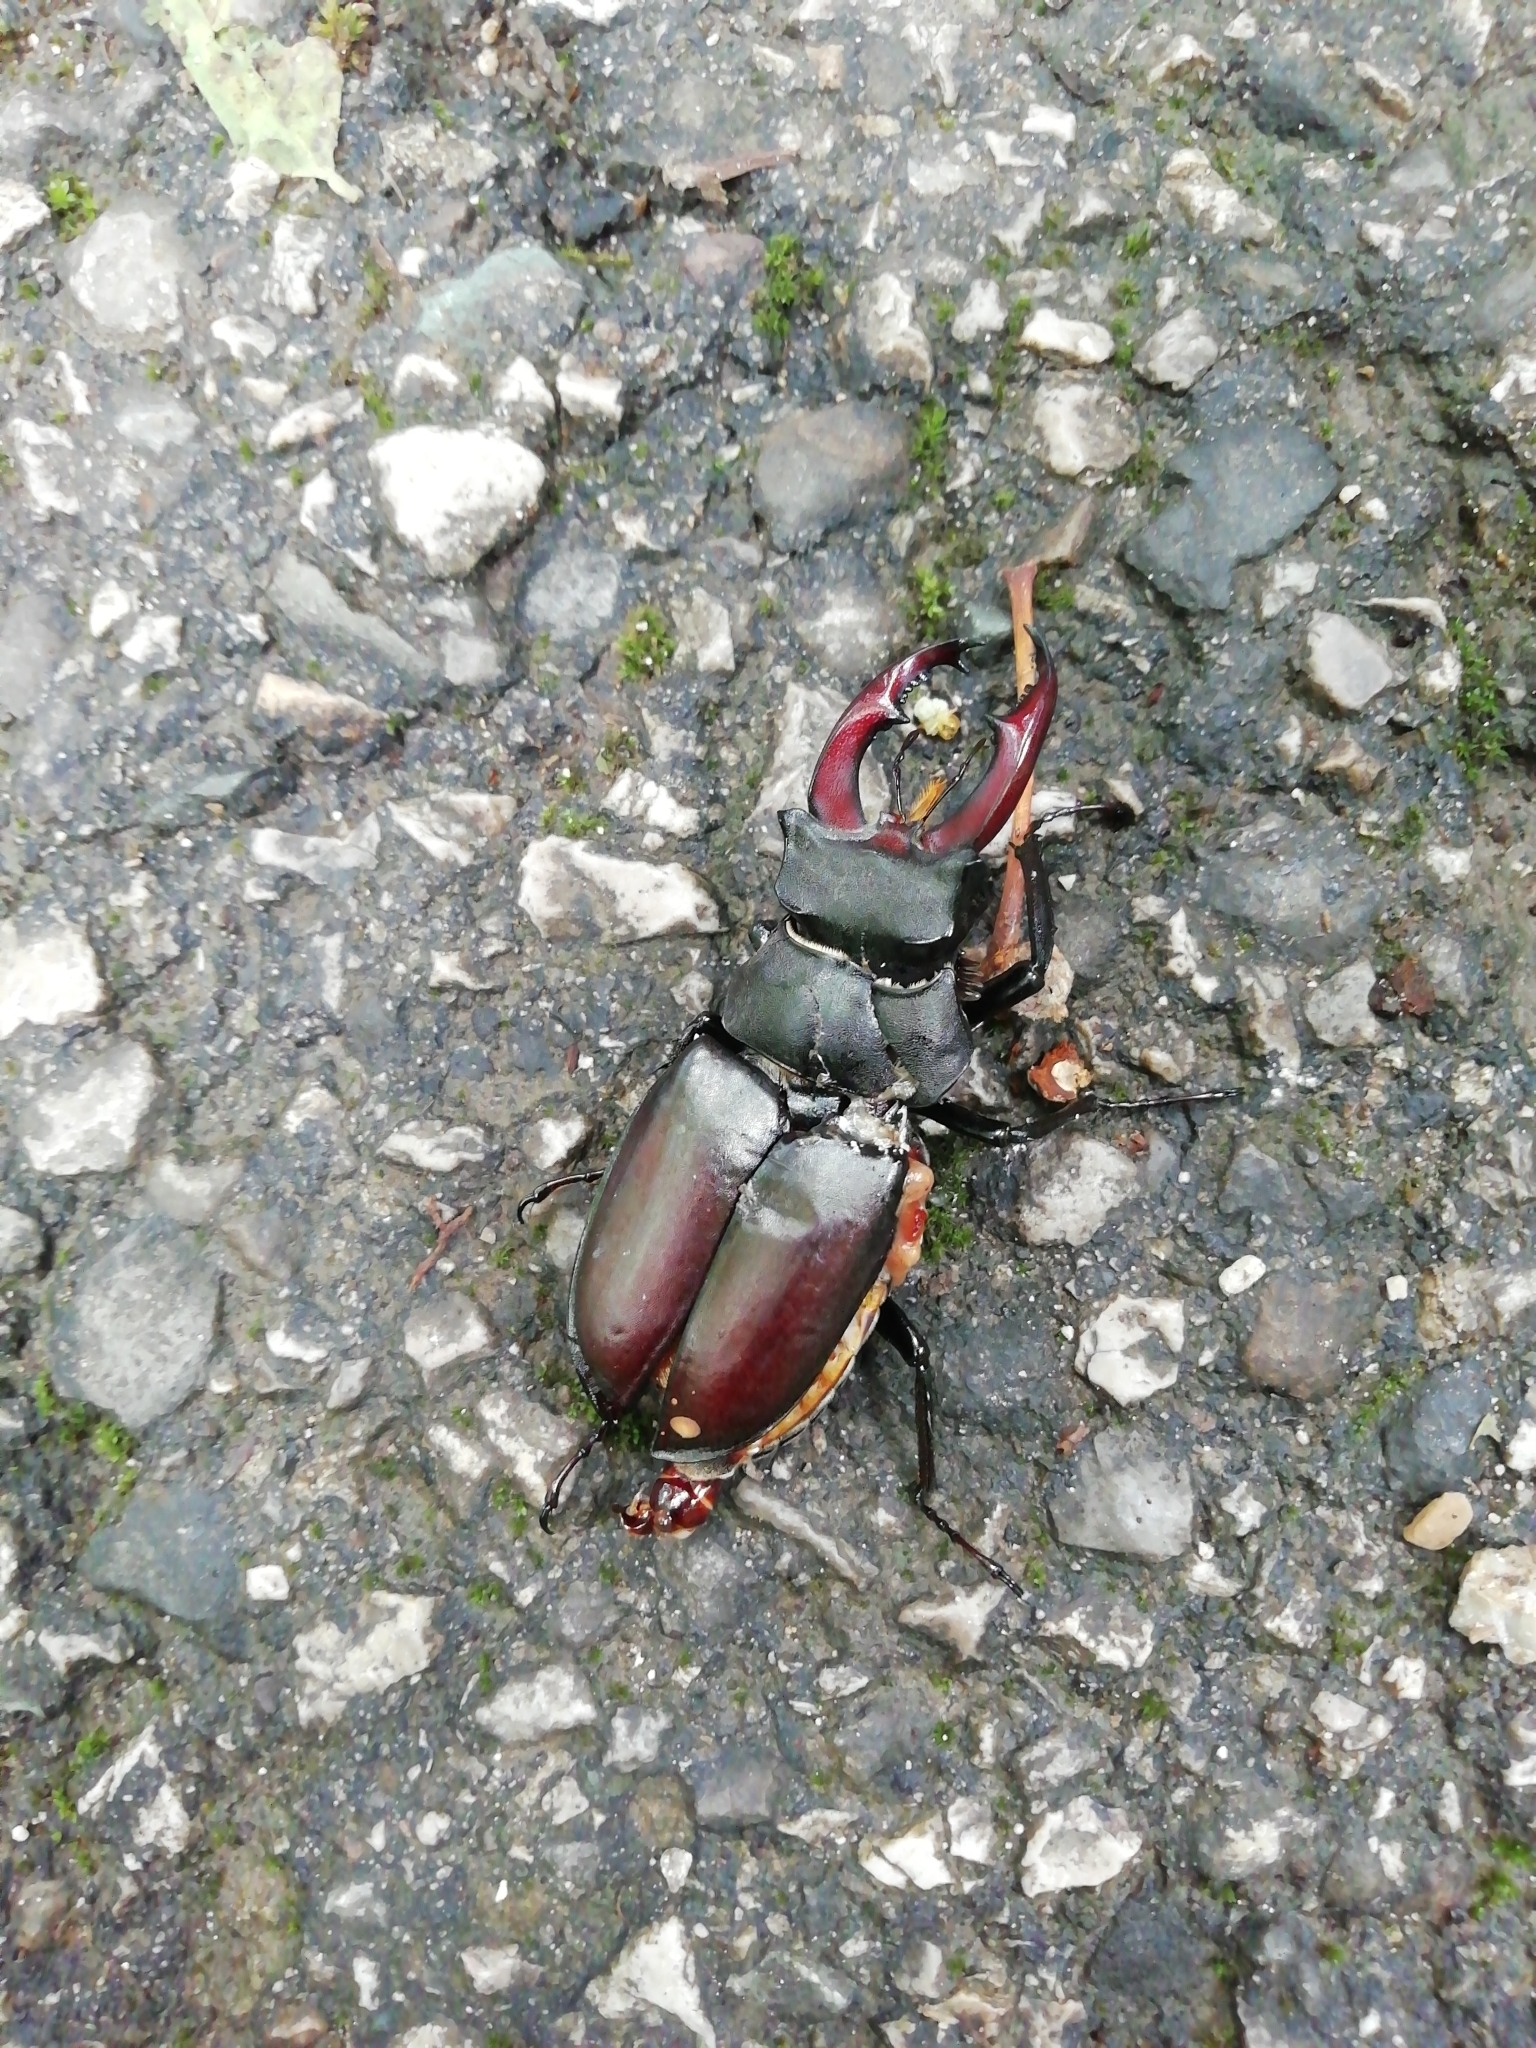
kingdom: Animalia
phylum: Arthropoda
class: Insecta
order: Coleoptera
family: Lucanidae
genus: Lucanus
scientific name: Lucanus cervus
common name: Stag beetle
